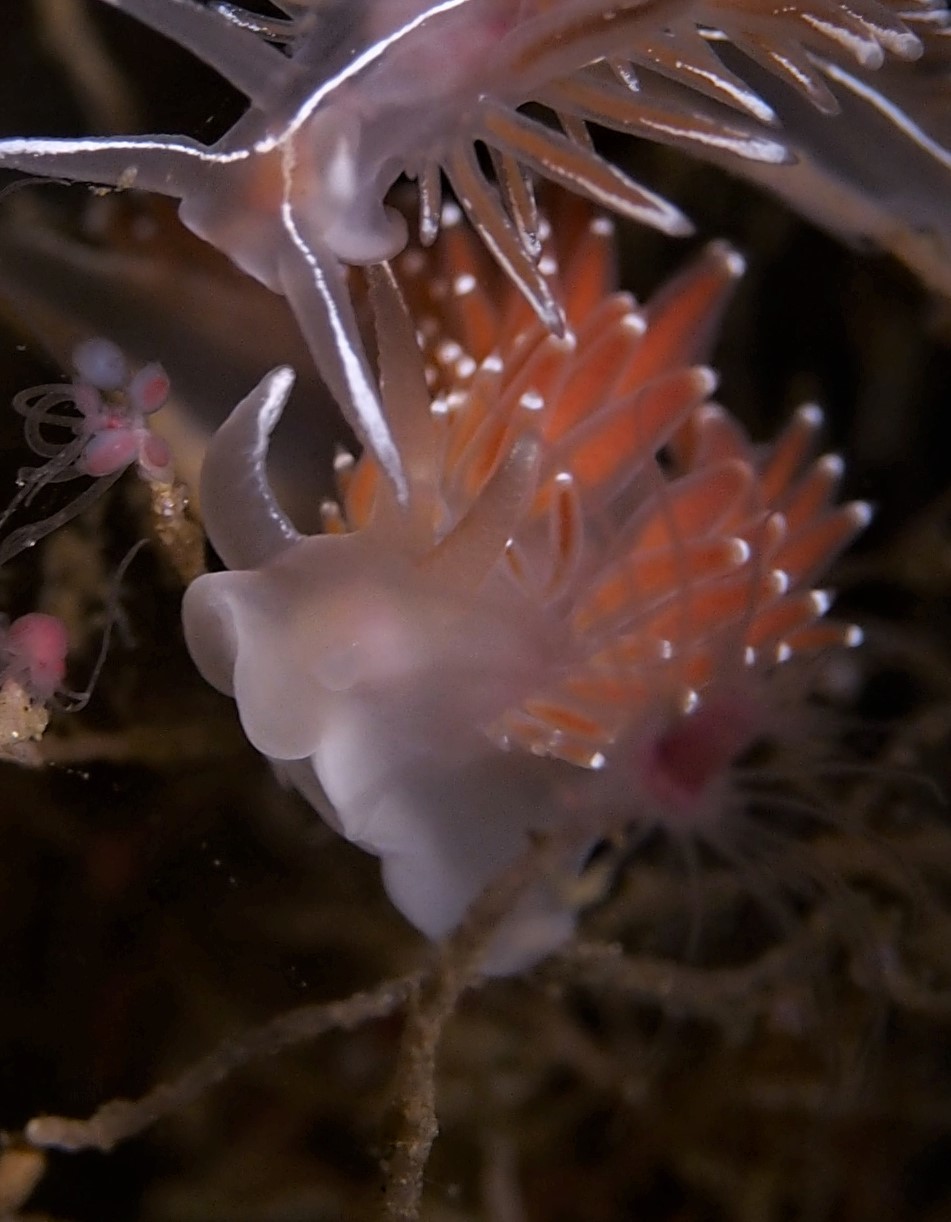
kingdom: Animalia
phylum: Mollusca
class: Gastropoda
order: Nudibranchia
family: Coryphellidae
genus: Coryphella
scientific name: Coryphella verrucosa
